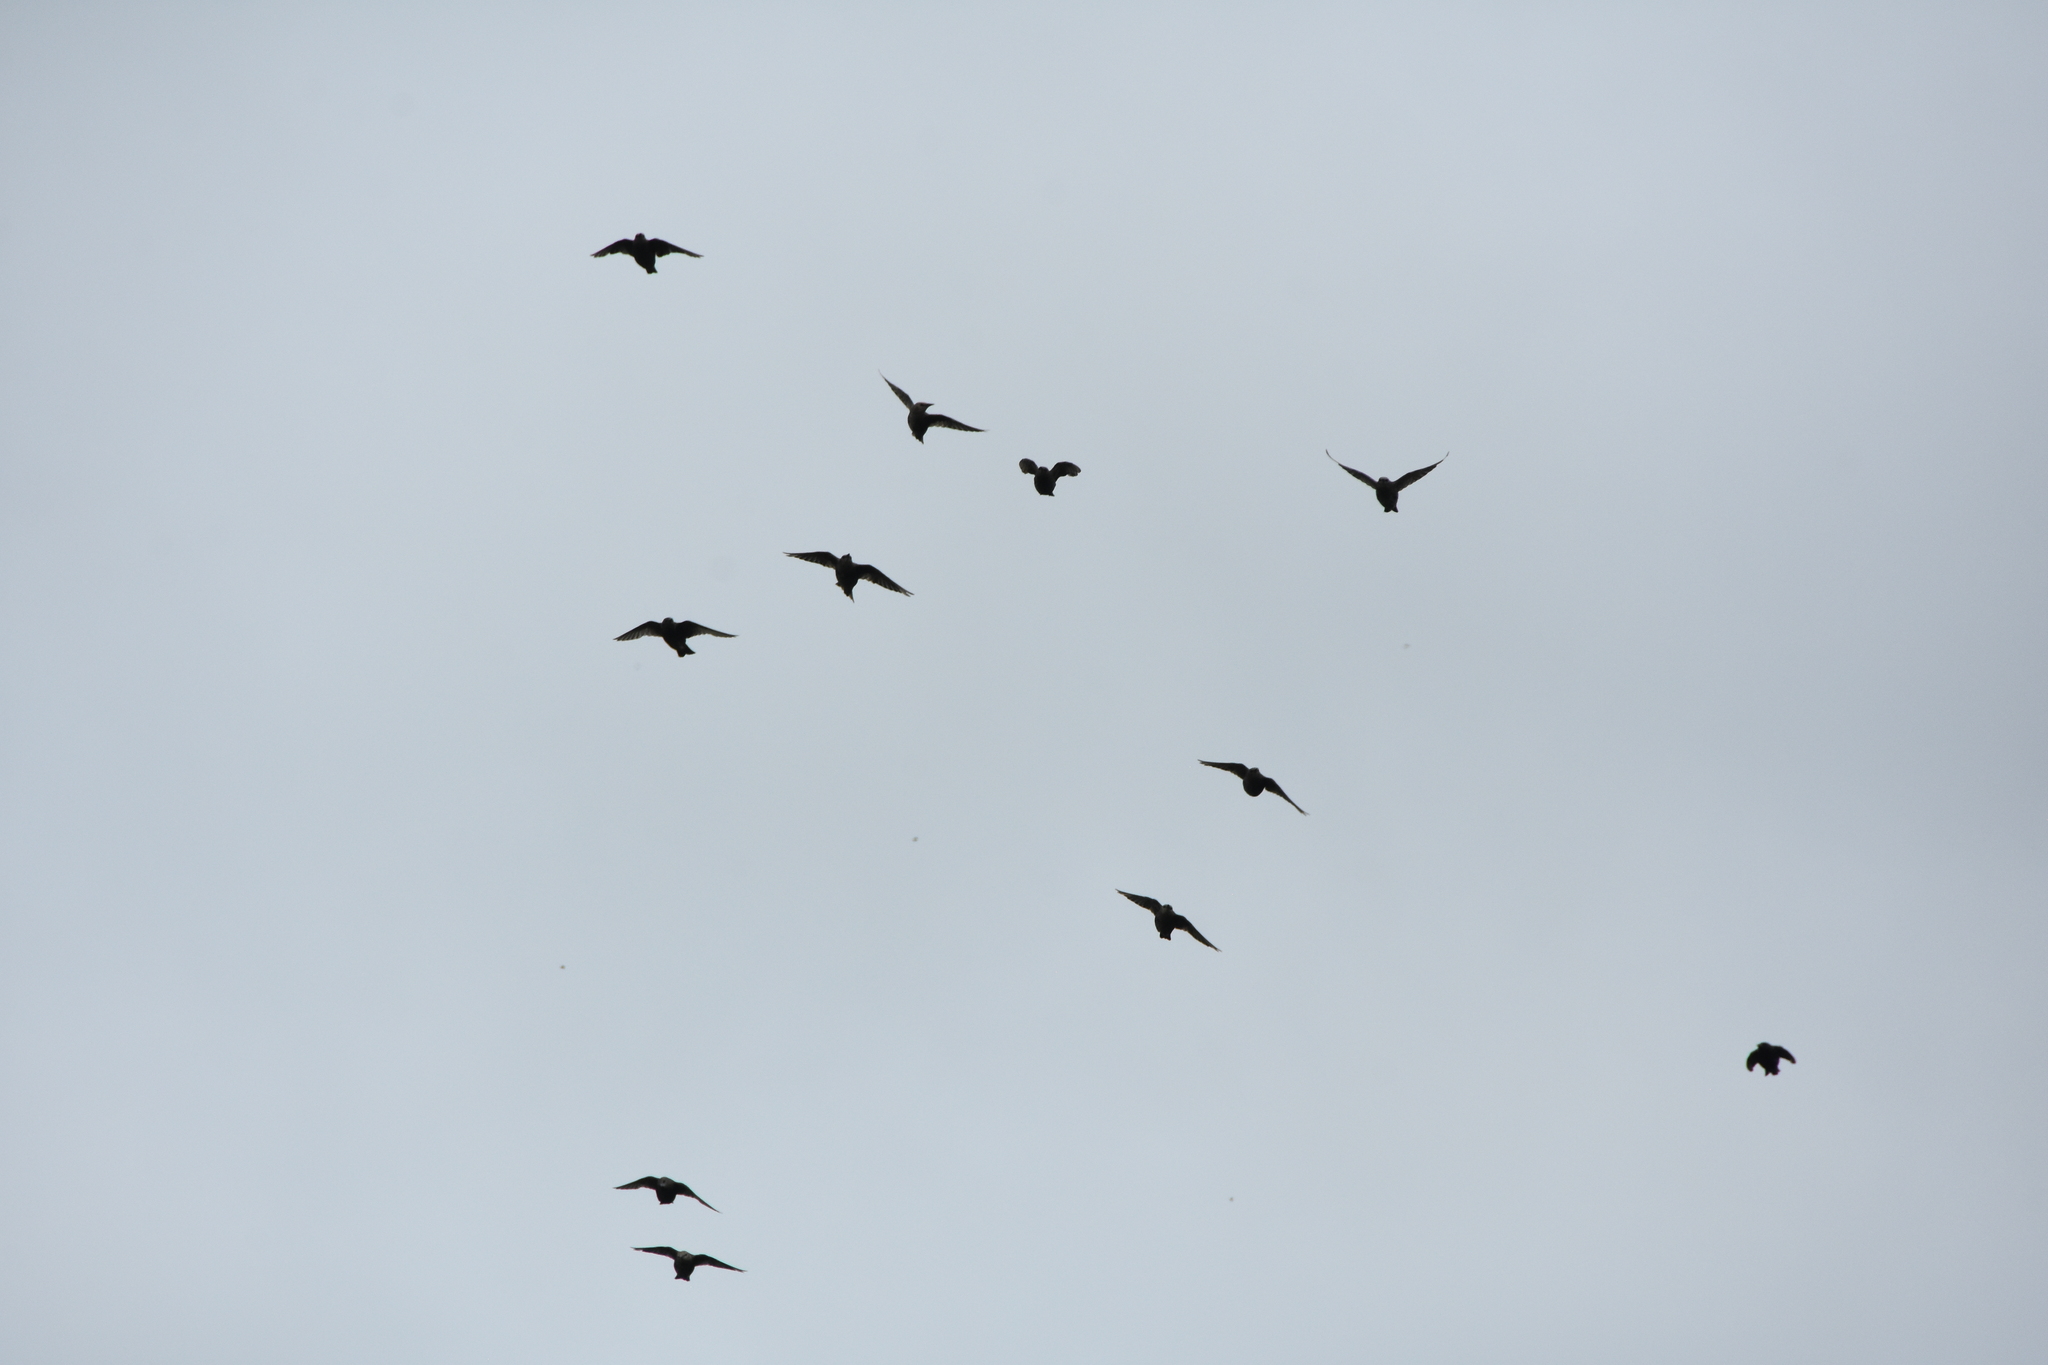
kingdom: Animalia
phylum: Chordata
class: Aves
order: Passeriformes
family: Sturnidae
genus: Sturnus
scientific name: Sturnus vulgaris
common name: Common starling
